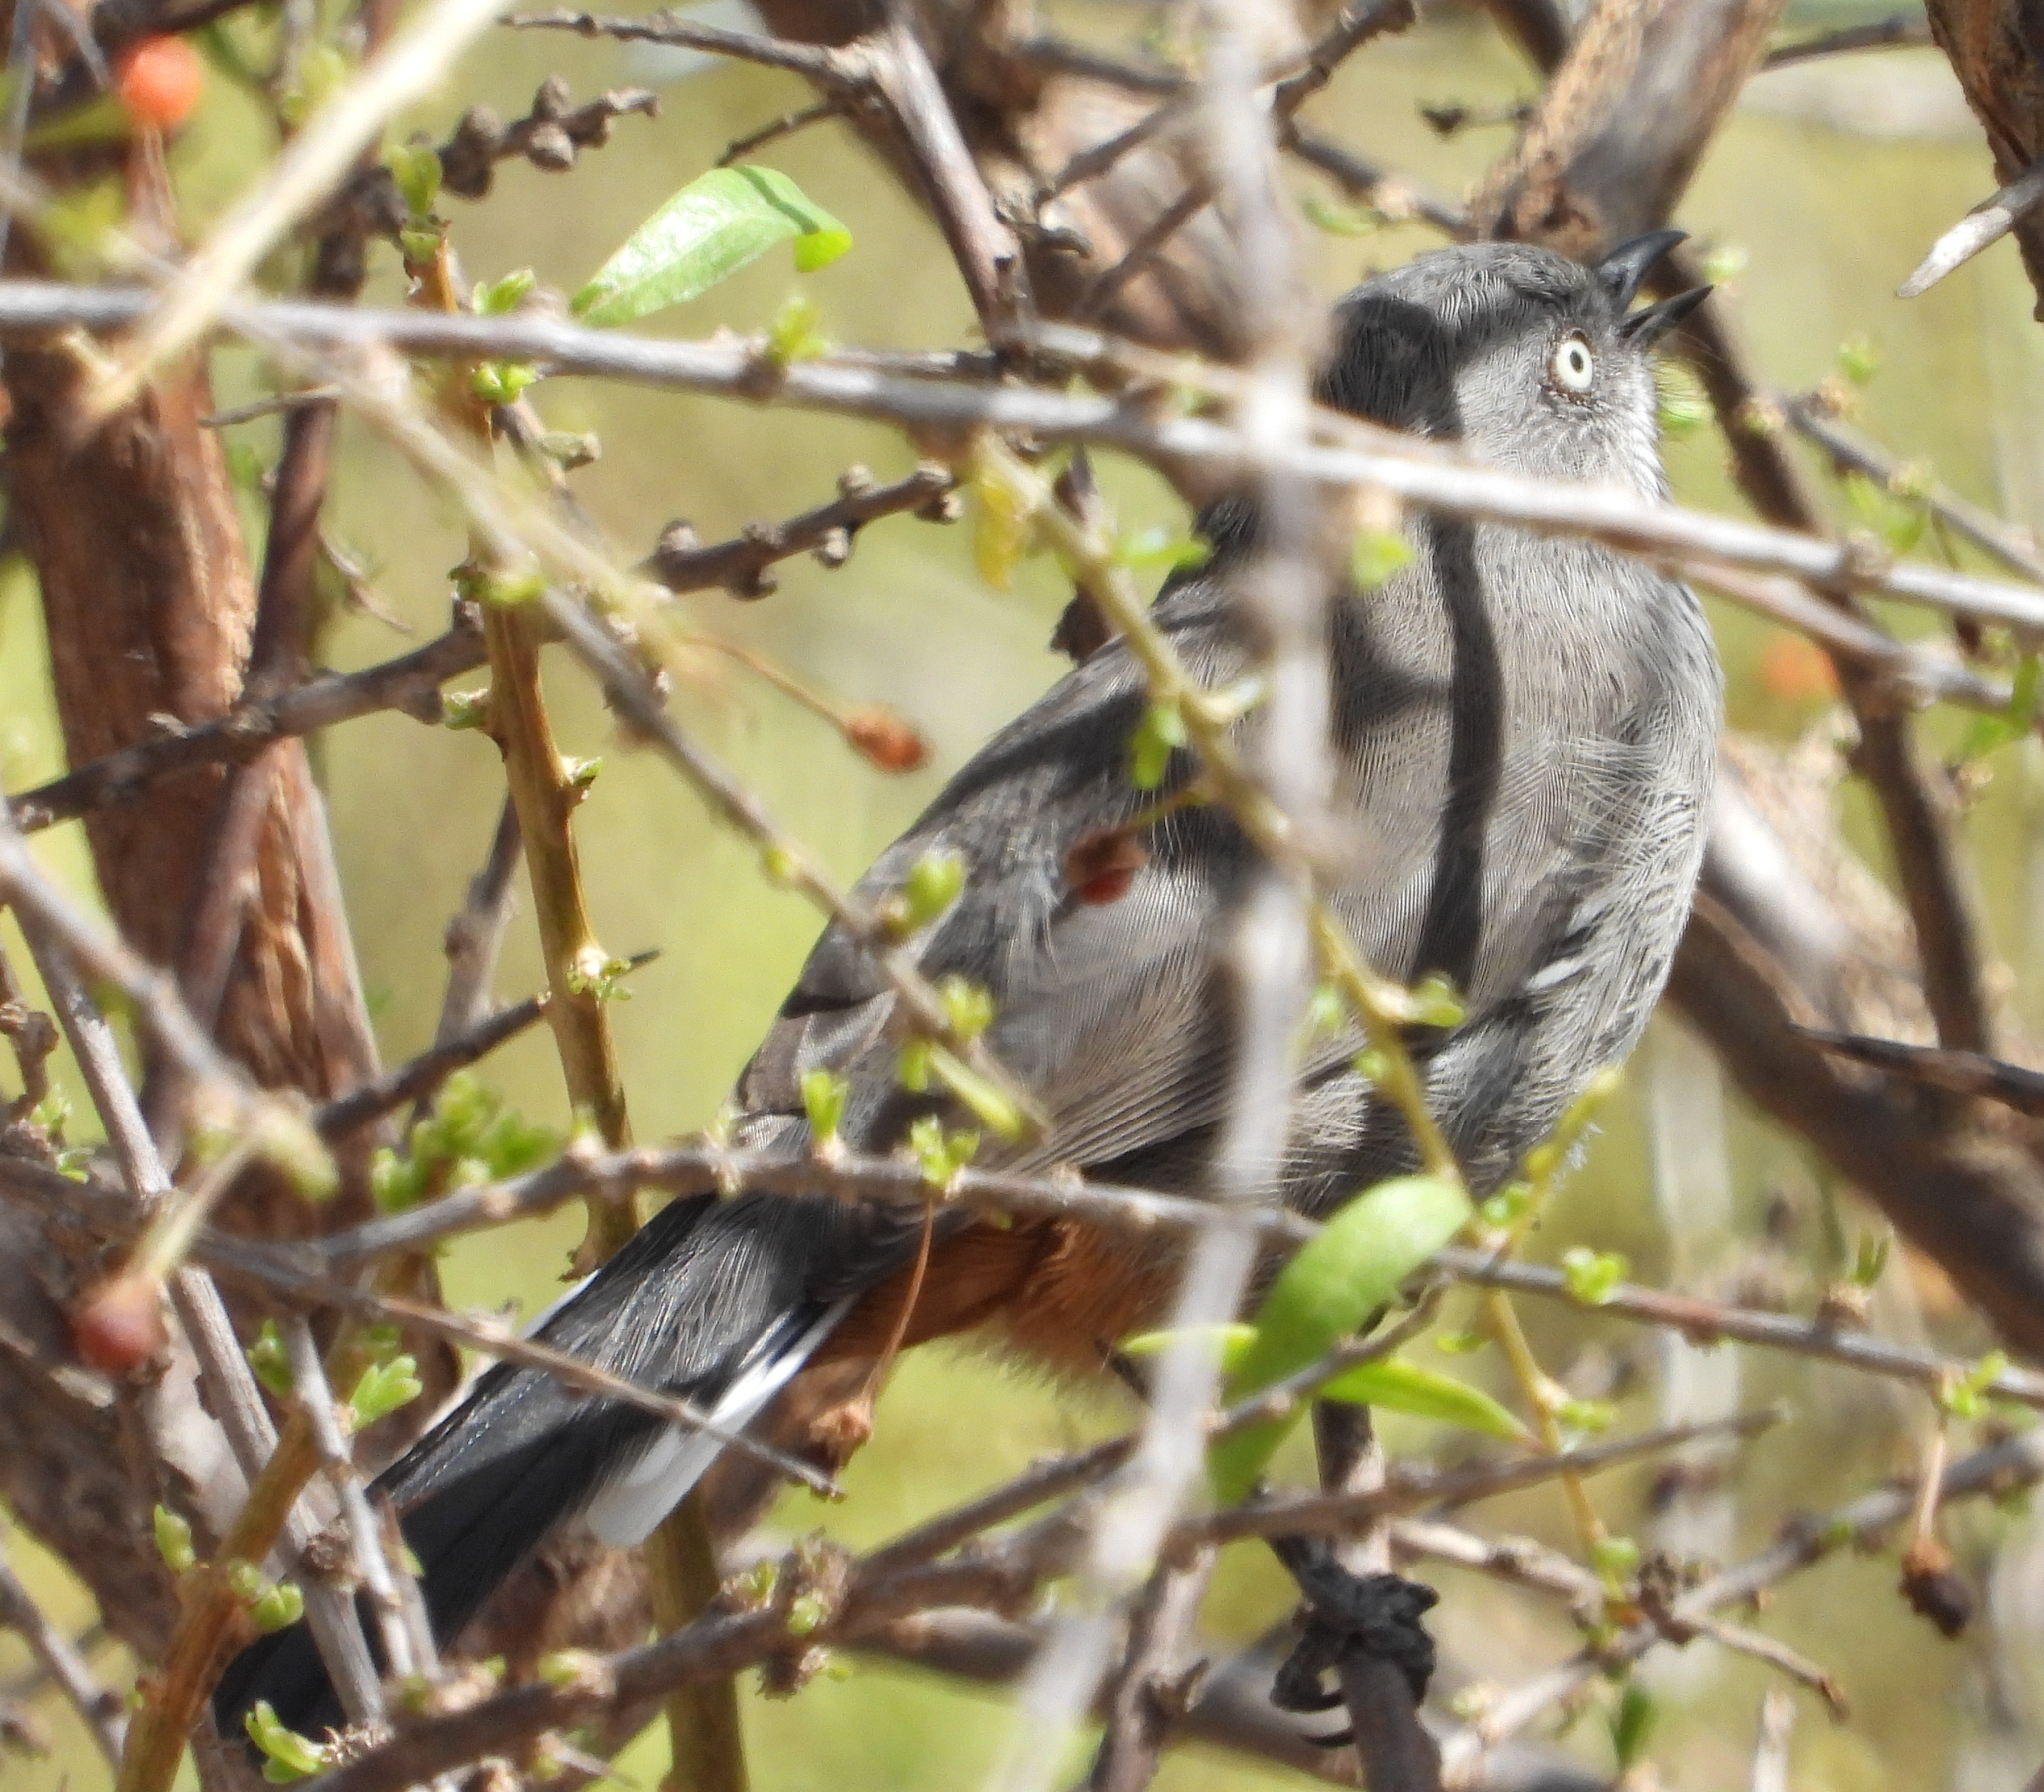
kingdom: Animalia
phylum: Chordata
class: Aves
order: Passeriformes
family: Sylviidae
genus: Curruca
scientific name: Curruca subcoerulea
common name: Chestnut-vented warbler
